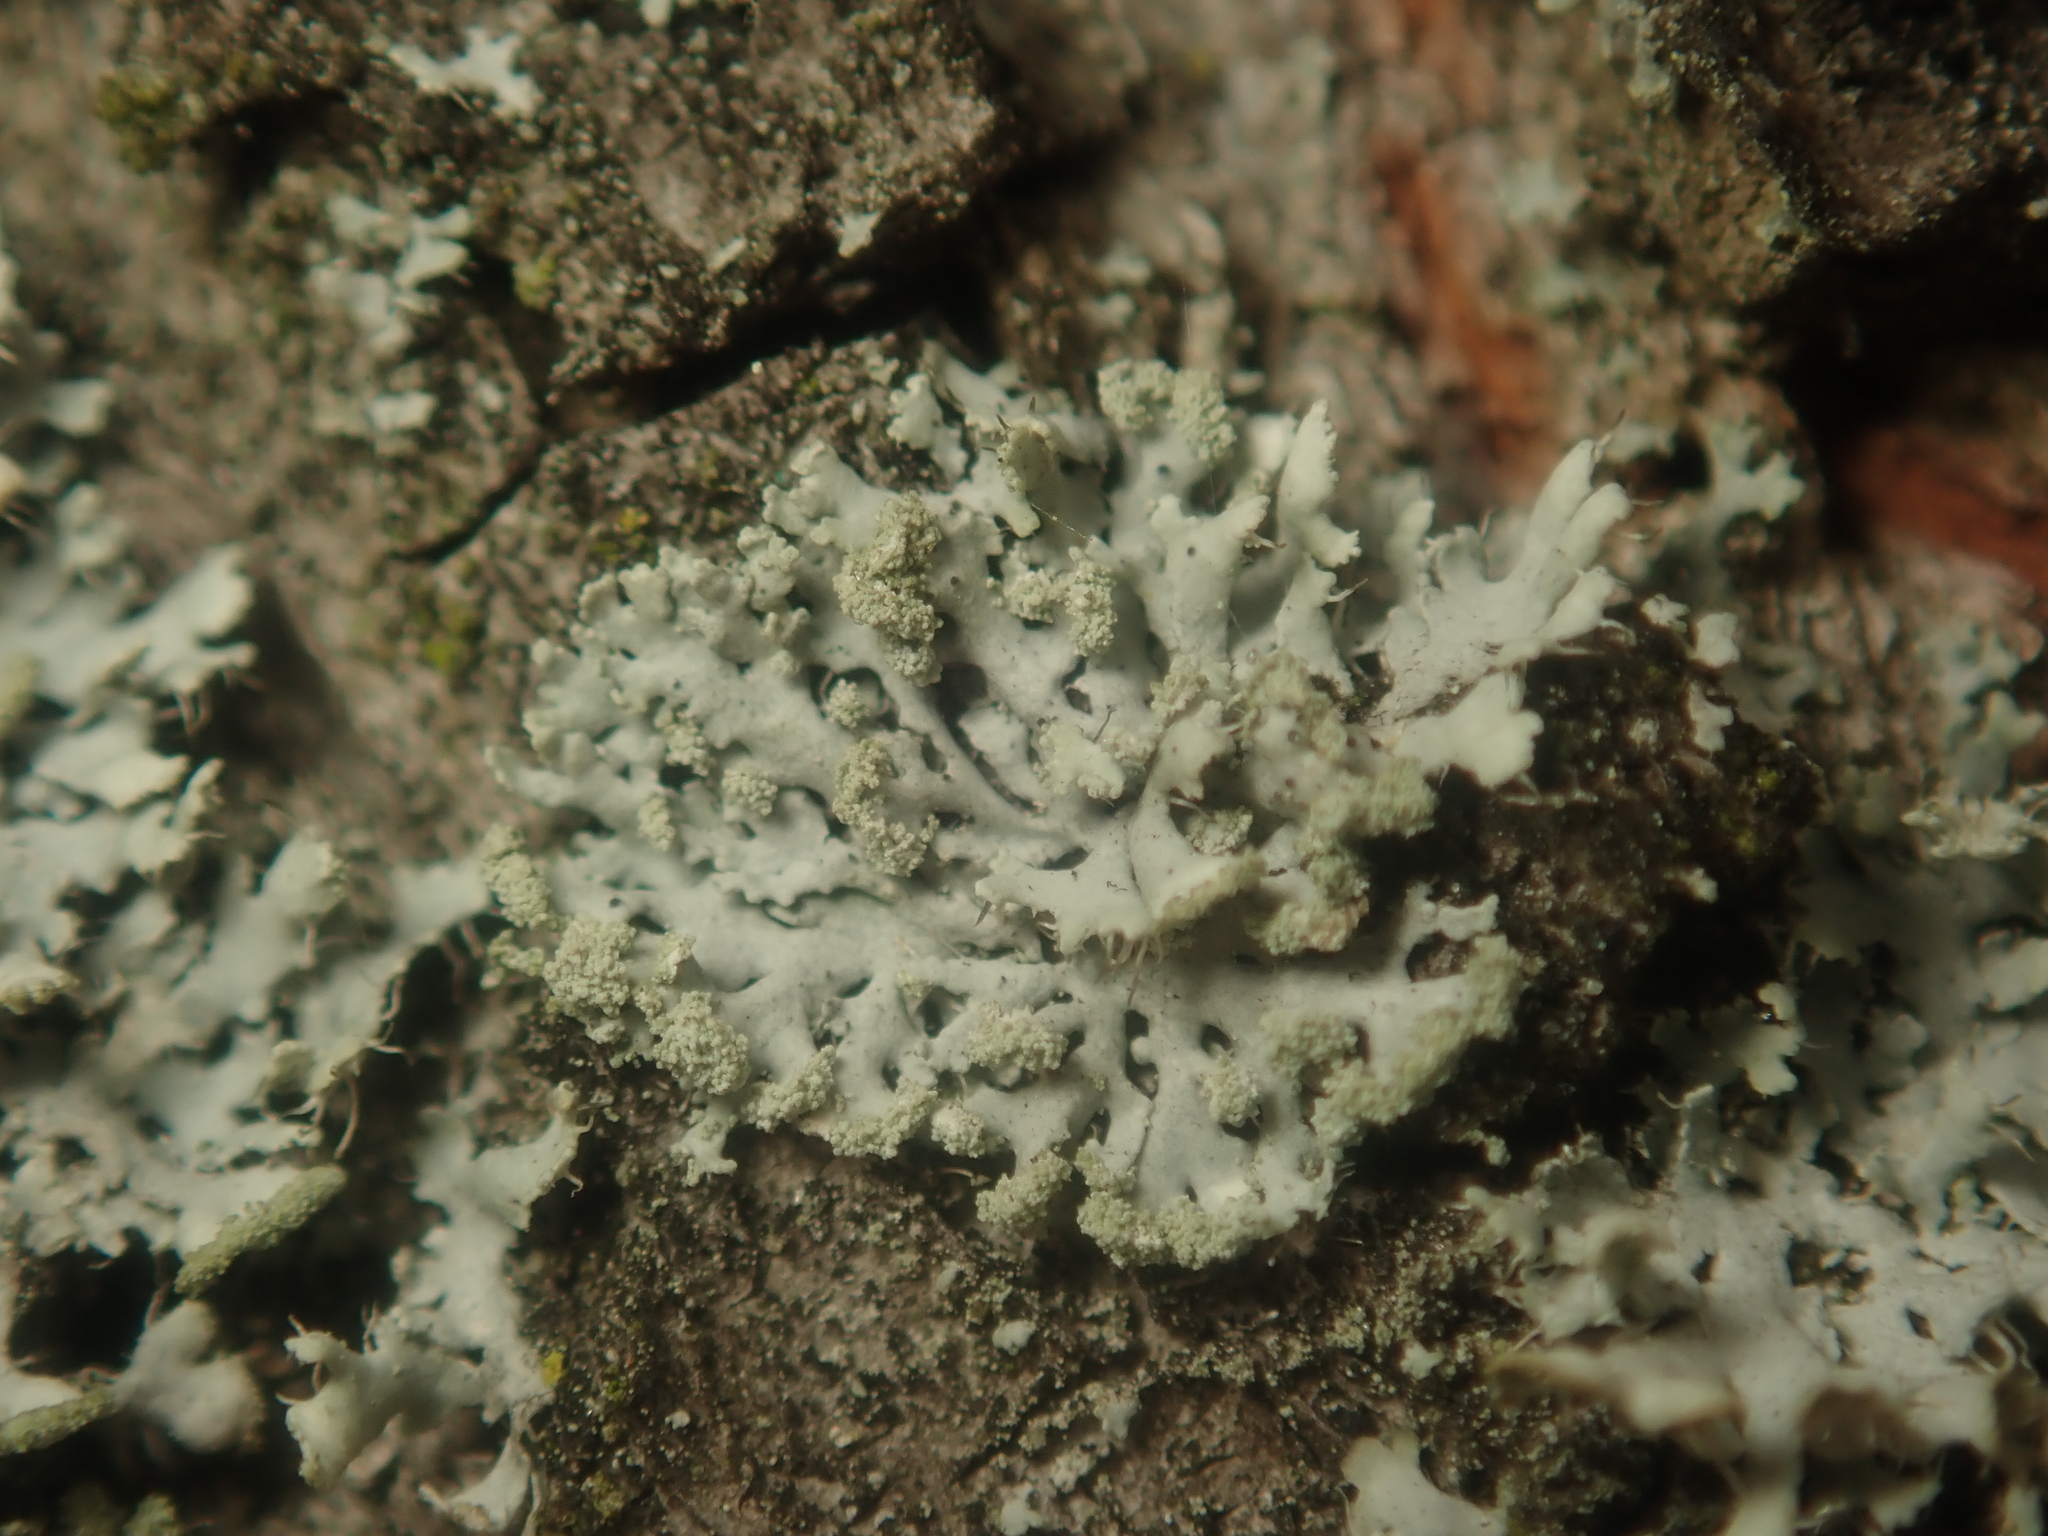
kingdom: Fungi
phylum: Ascomycota
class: Lecanoromycetes
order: Caliciales
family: Physciaceae
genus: Physcia
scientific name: Physcia tenella
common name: Fringed rosette lichen
